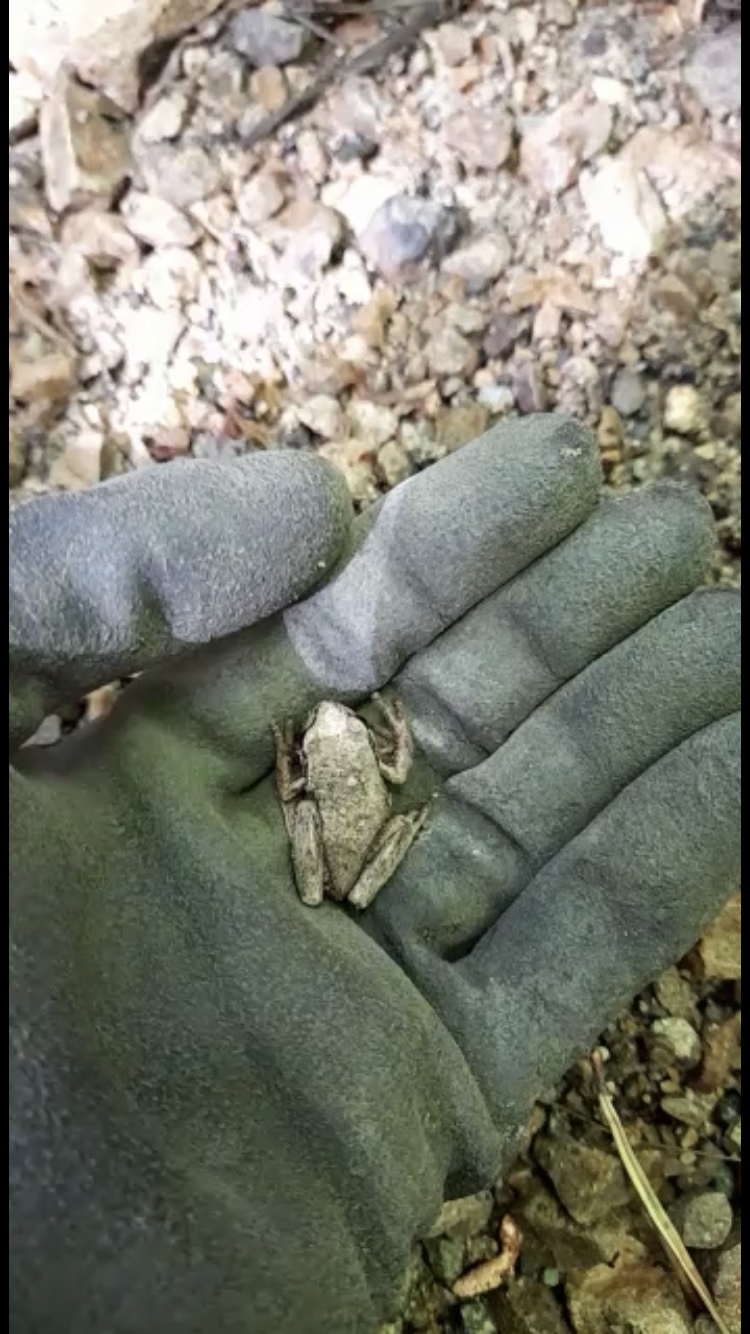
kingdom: Animalia
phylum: Chordata
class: Amphibia
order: Anura
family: Pelodryadidae
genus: Litoria
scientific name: Litoria ewingii
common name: Southern brown tree frog
